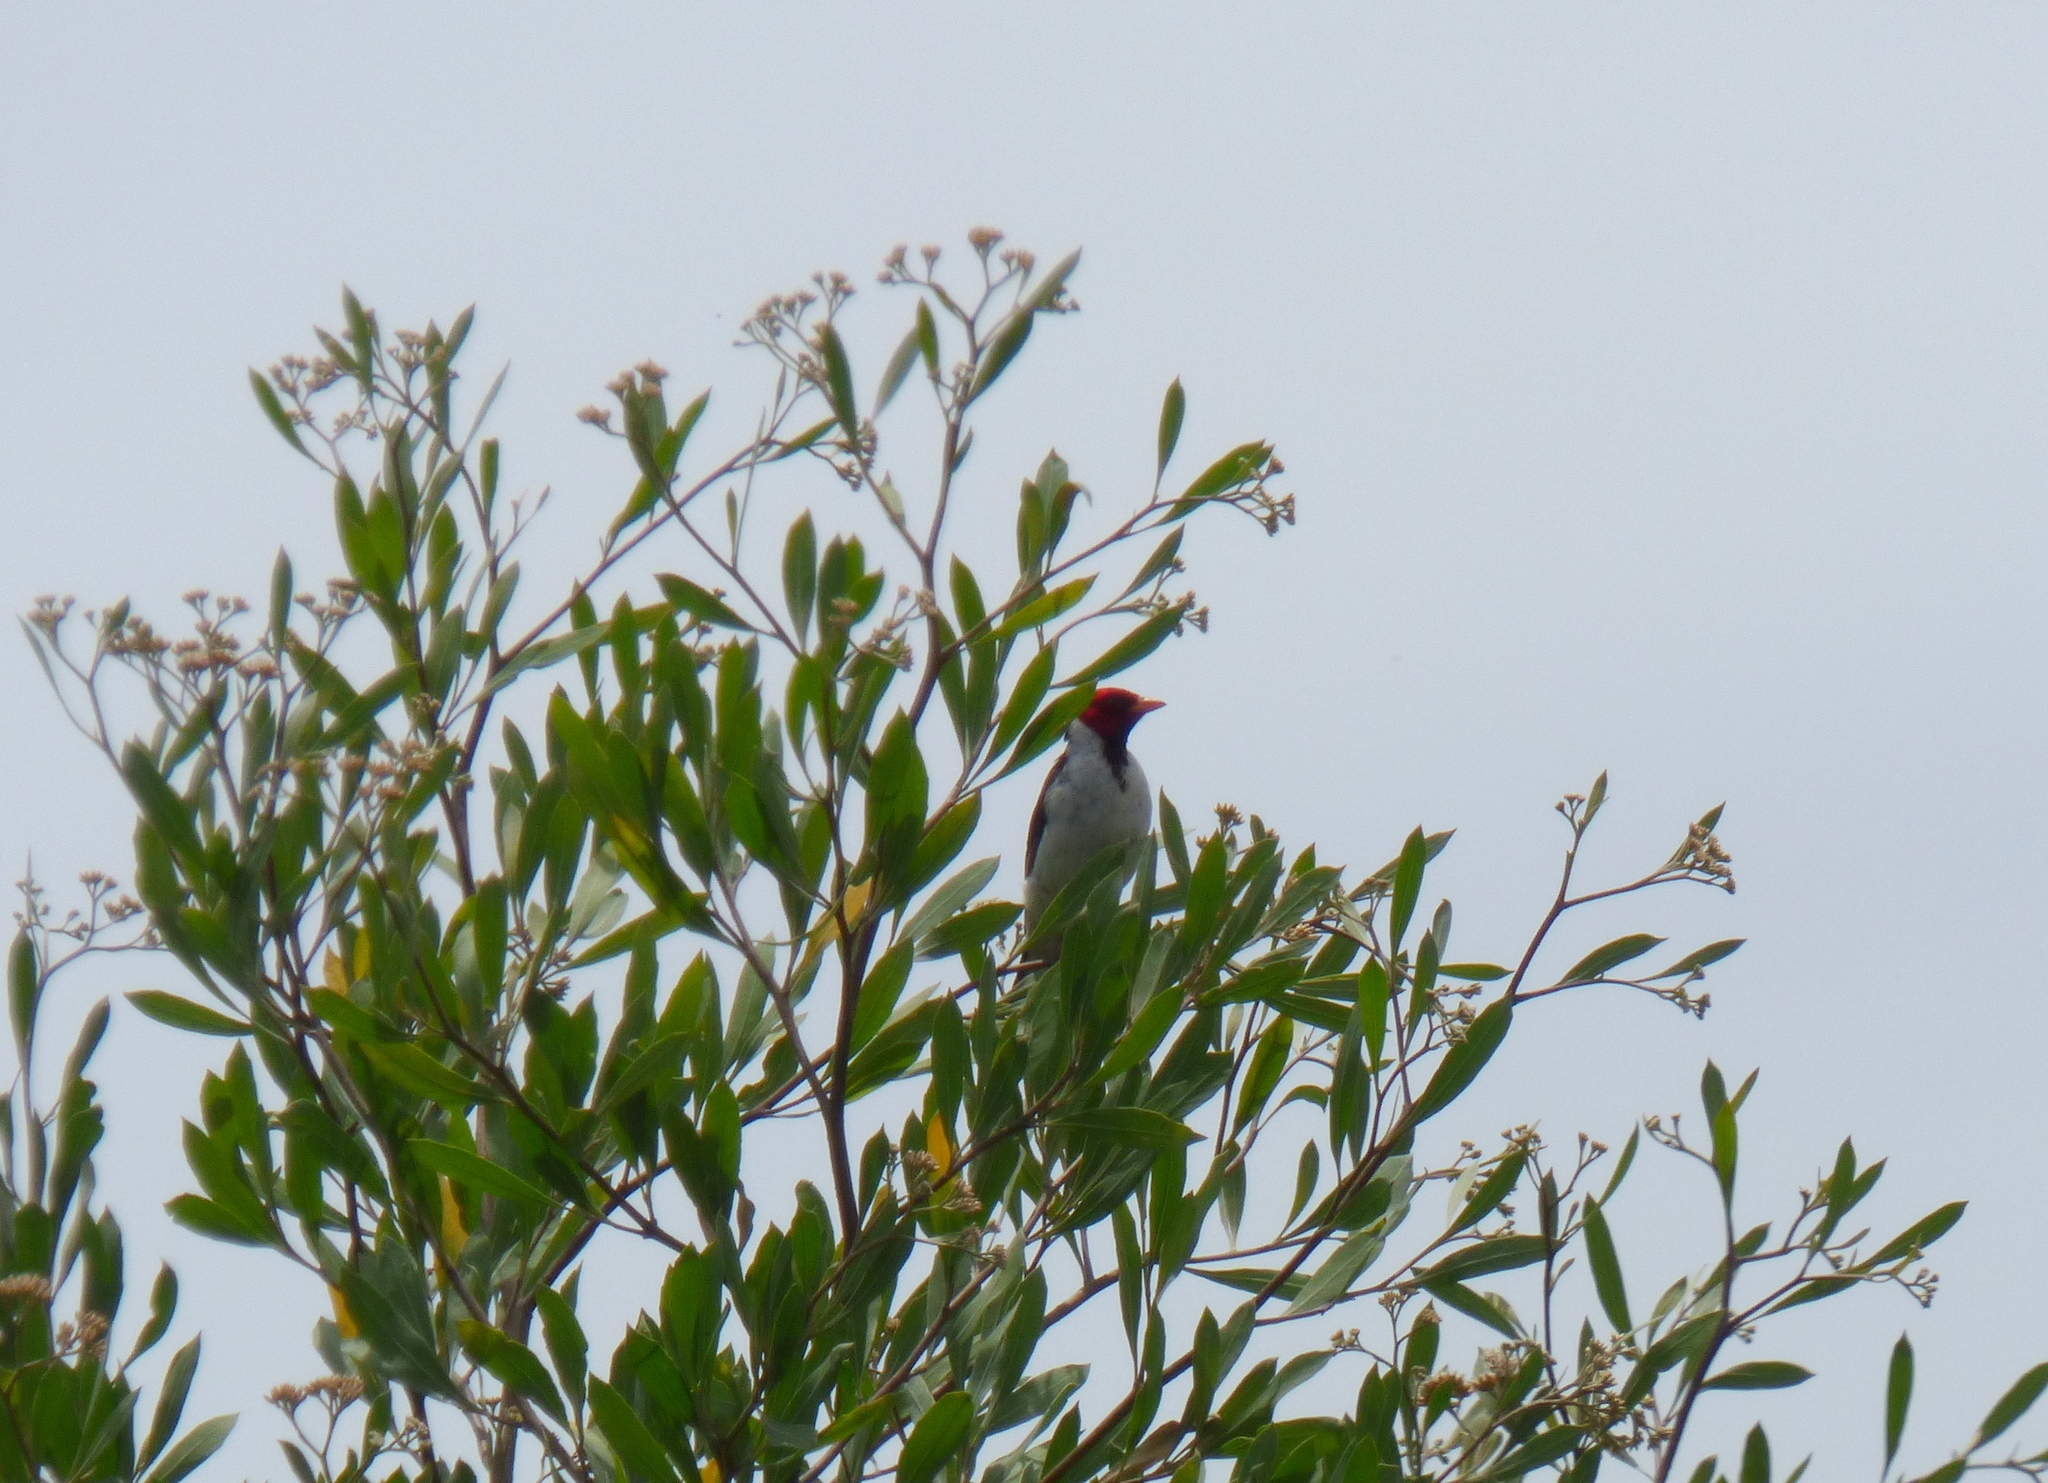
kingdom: Animalia
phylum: Chordata
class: Aves
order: Passeriformes
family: Thraupidae
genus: Paroaria
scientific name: Paroaria capitata
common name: Yellow-billed cardinal
